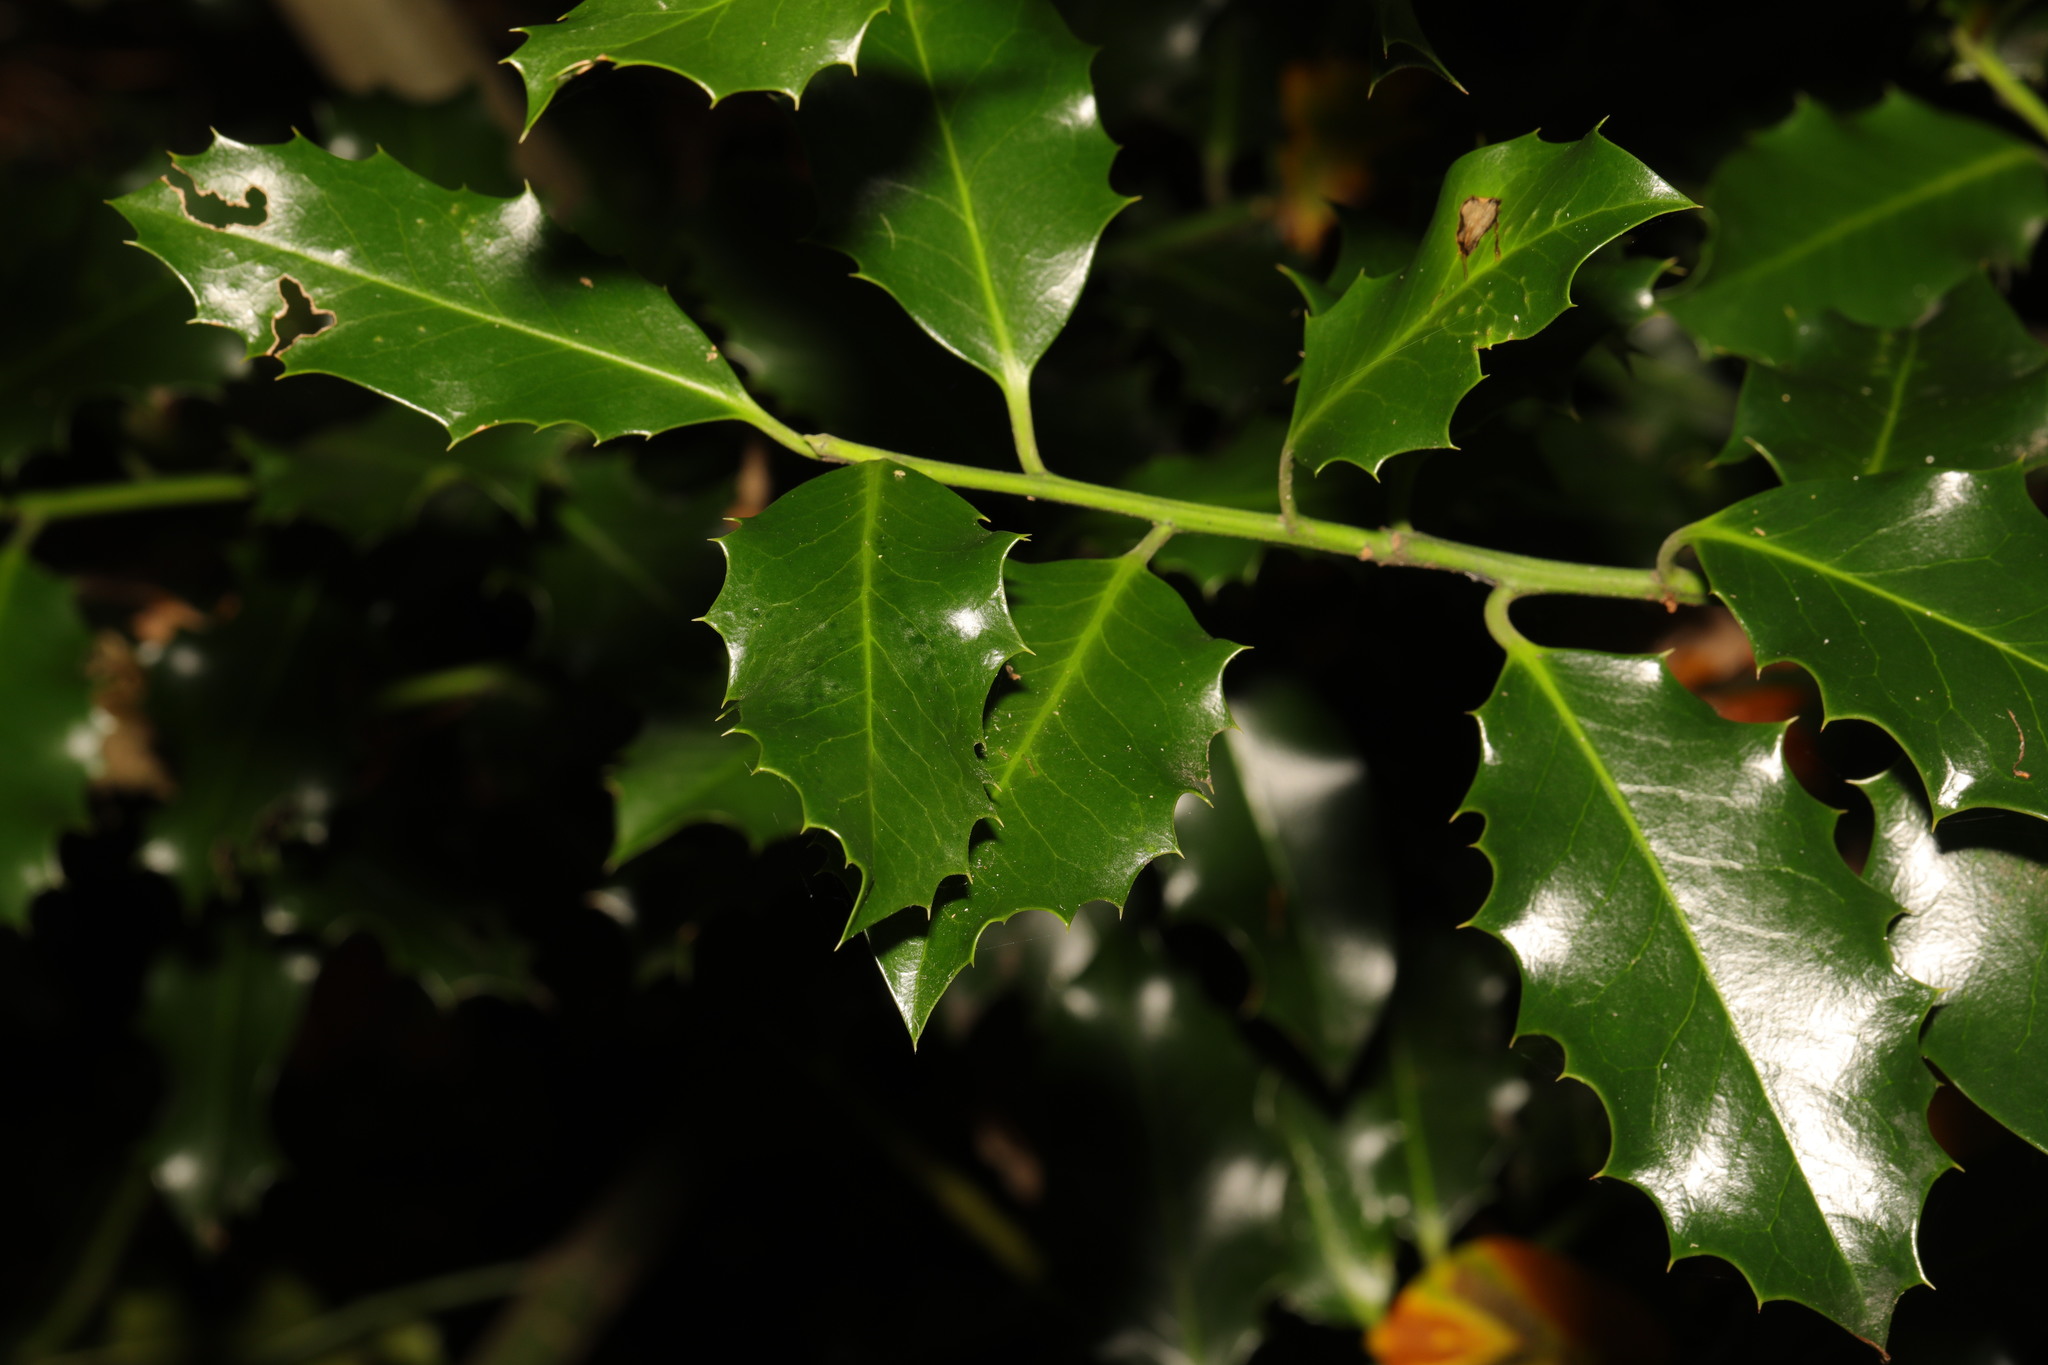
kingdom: Plantae
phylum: Tracheophyta
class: Magnoliopsida
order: Aquifoliales
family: Aquifoliaceae
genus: Ilex
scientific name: Ilex aquifolium
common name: English holly
